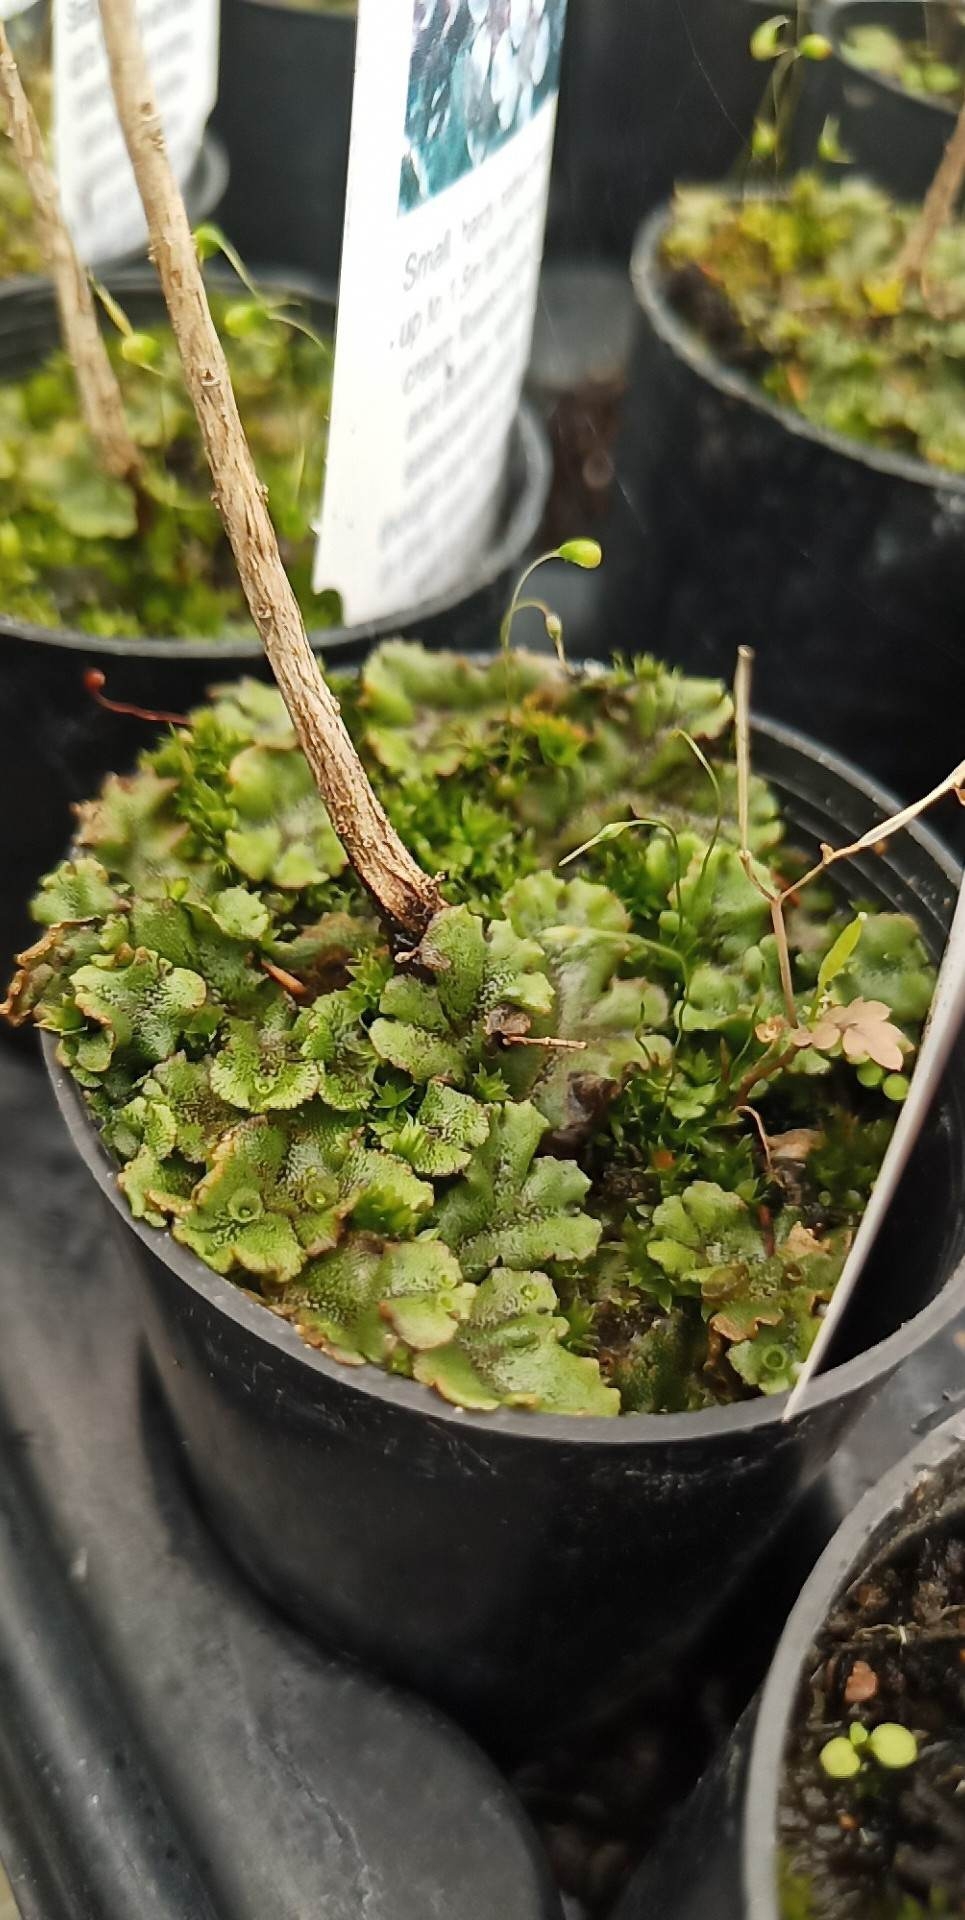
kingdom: Plantae
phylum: Marchantiophyta
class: Marchantiopsida
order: Marchantiales
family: Marchantiaceae
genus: Marchantia
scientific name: Marchantia polymorpha
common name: Common liverwort
